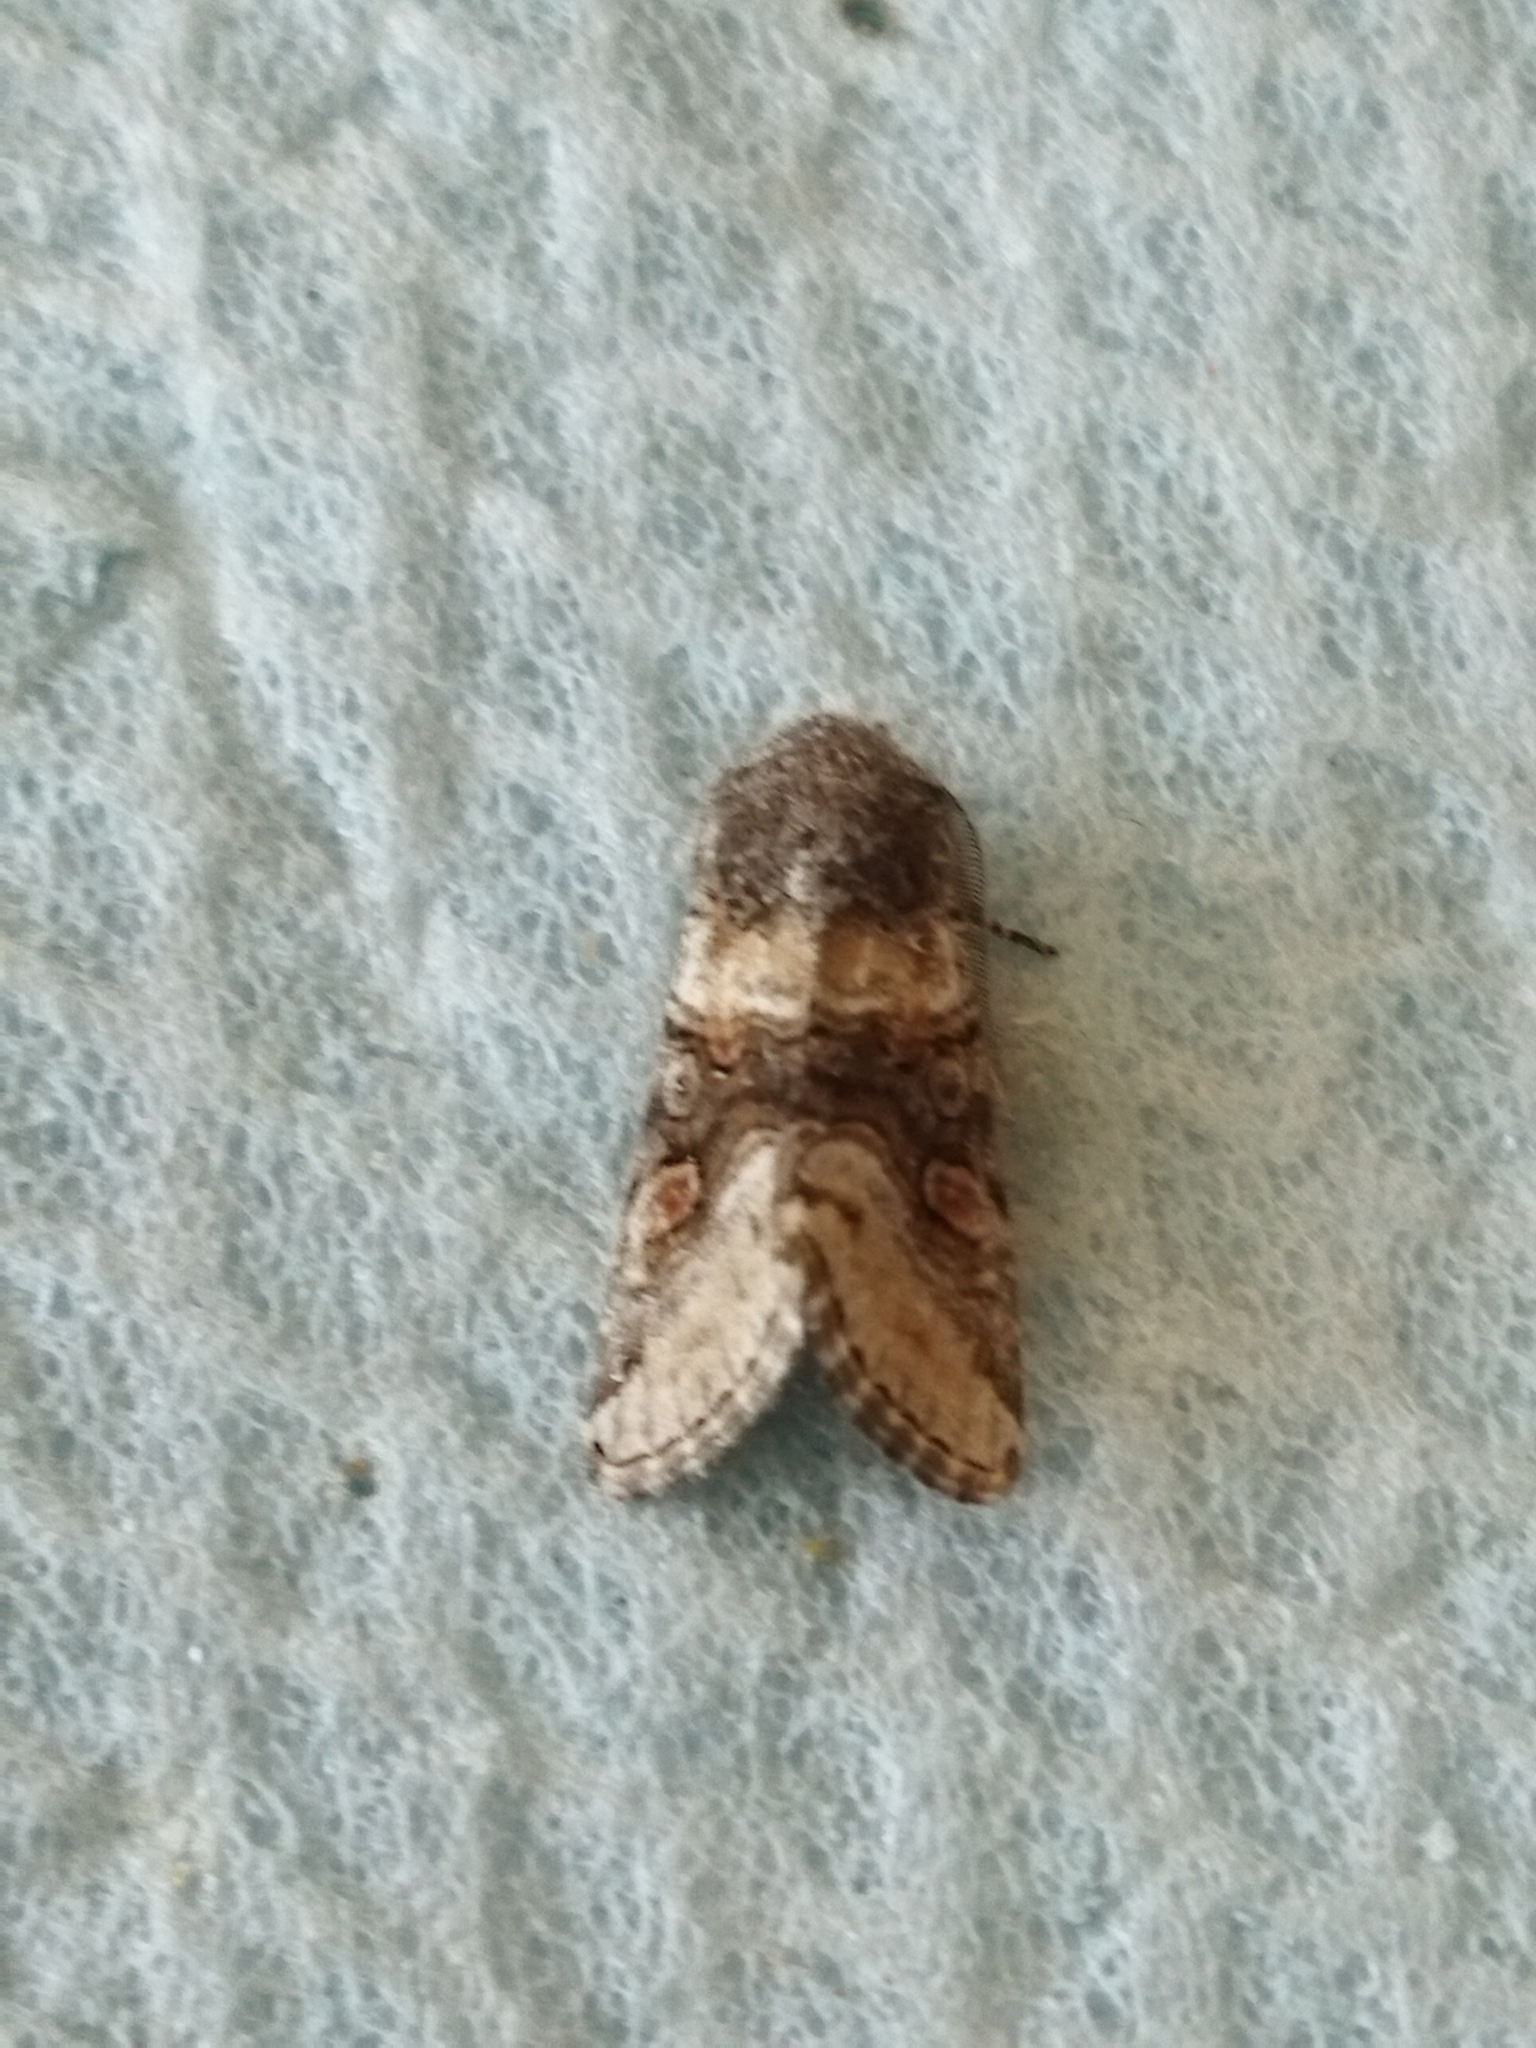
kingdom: Animalia
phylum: Arthropoda
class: Insecta
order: Lepidoptera
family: Noctuidae
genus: Cleoceris
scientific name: Cleoceris scoriacea
